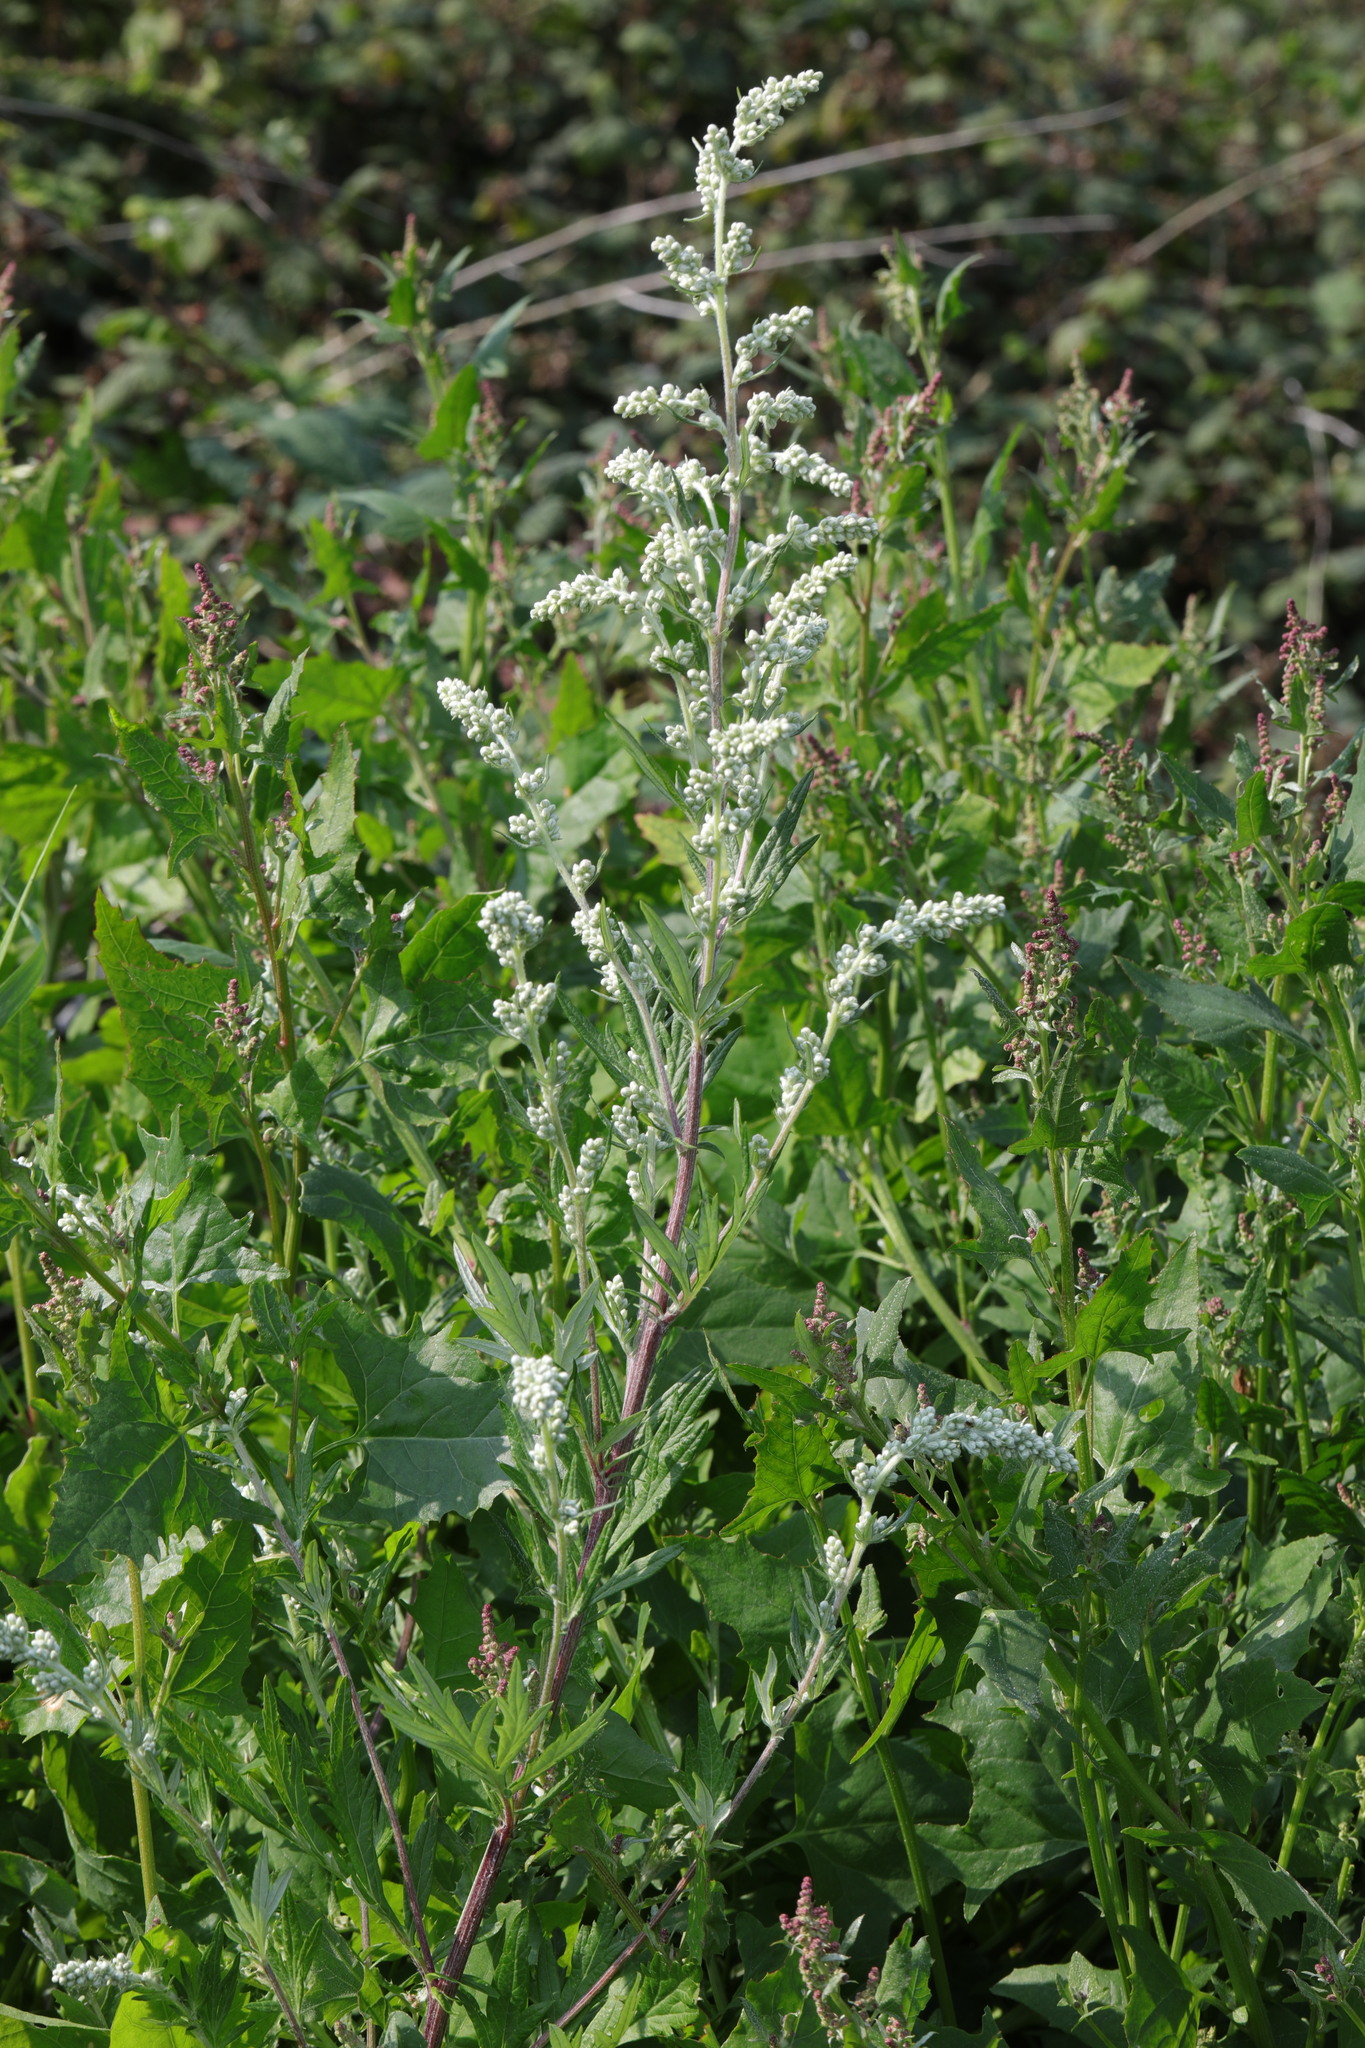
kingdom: Plantae
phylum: Tracheophyta
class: Magnoliopsida
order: Asterales
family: Asteraceae
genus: Artemisia
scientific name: Artemisia vulgaris
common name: Mugwort
